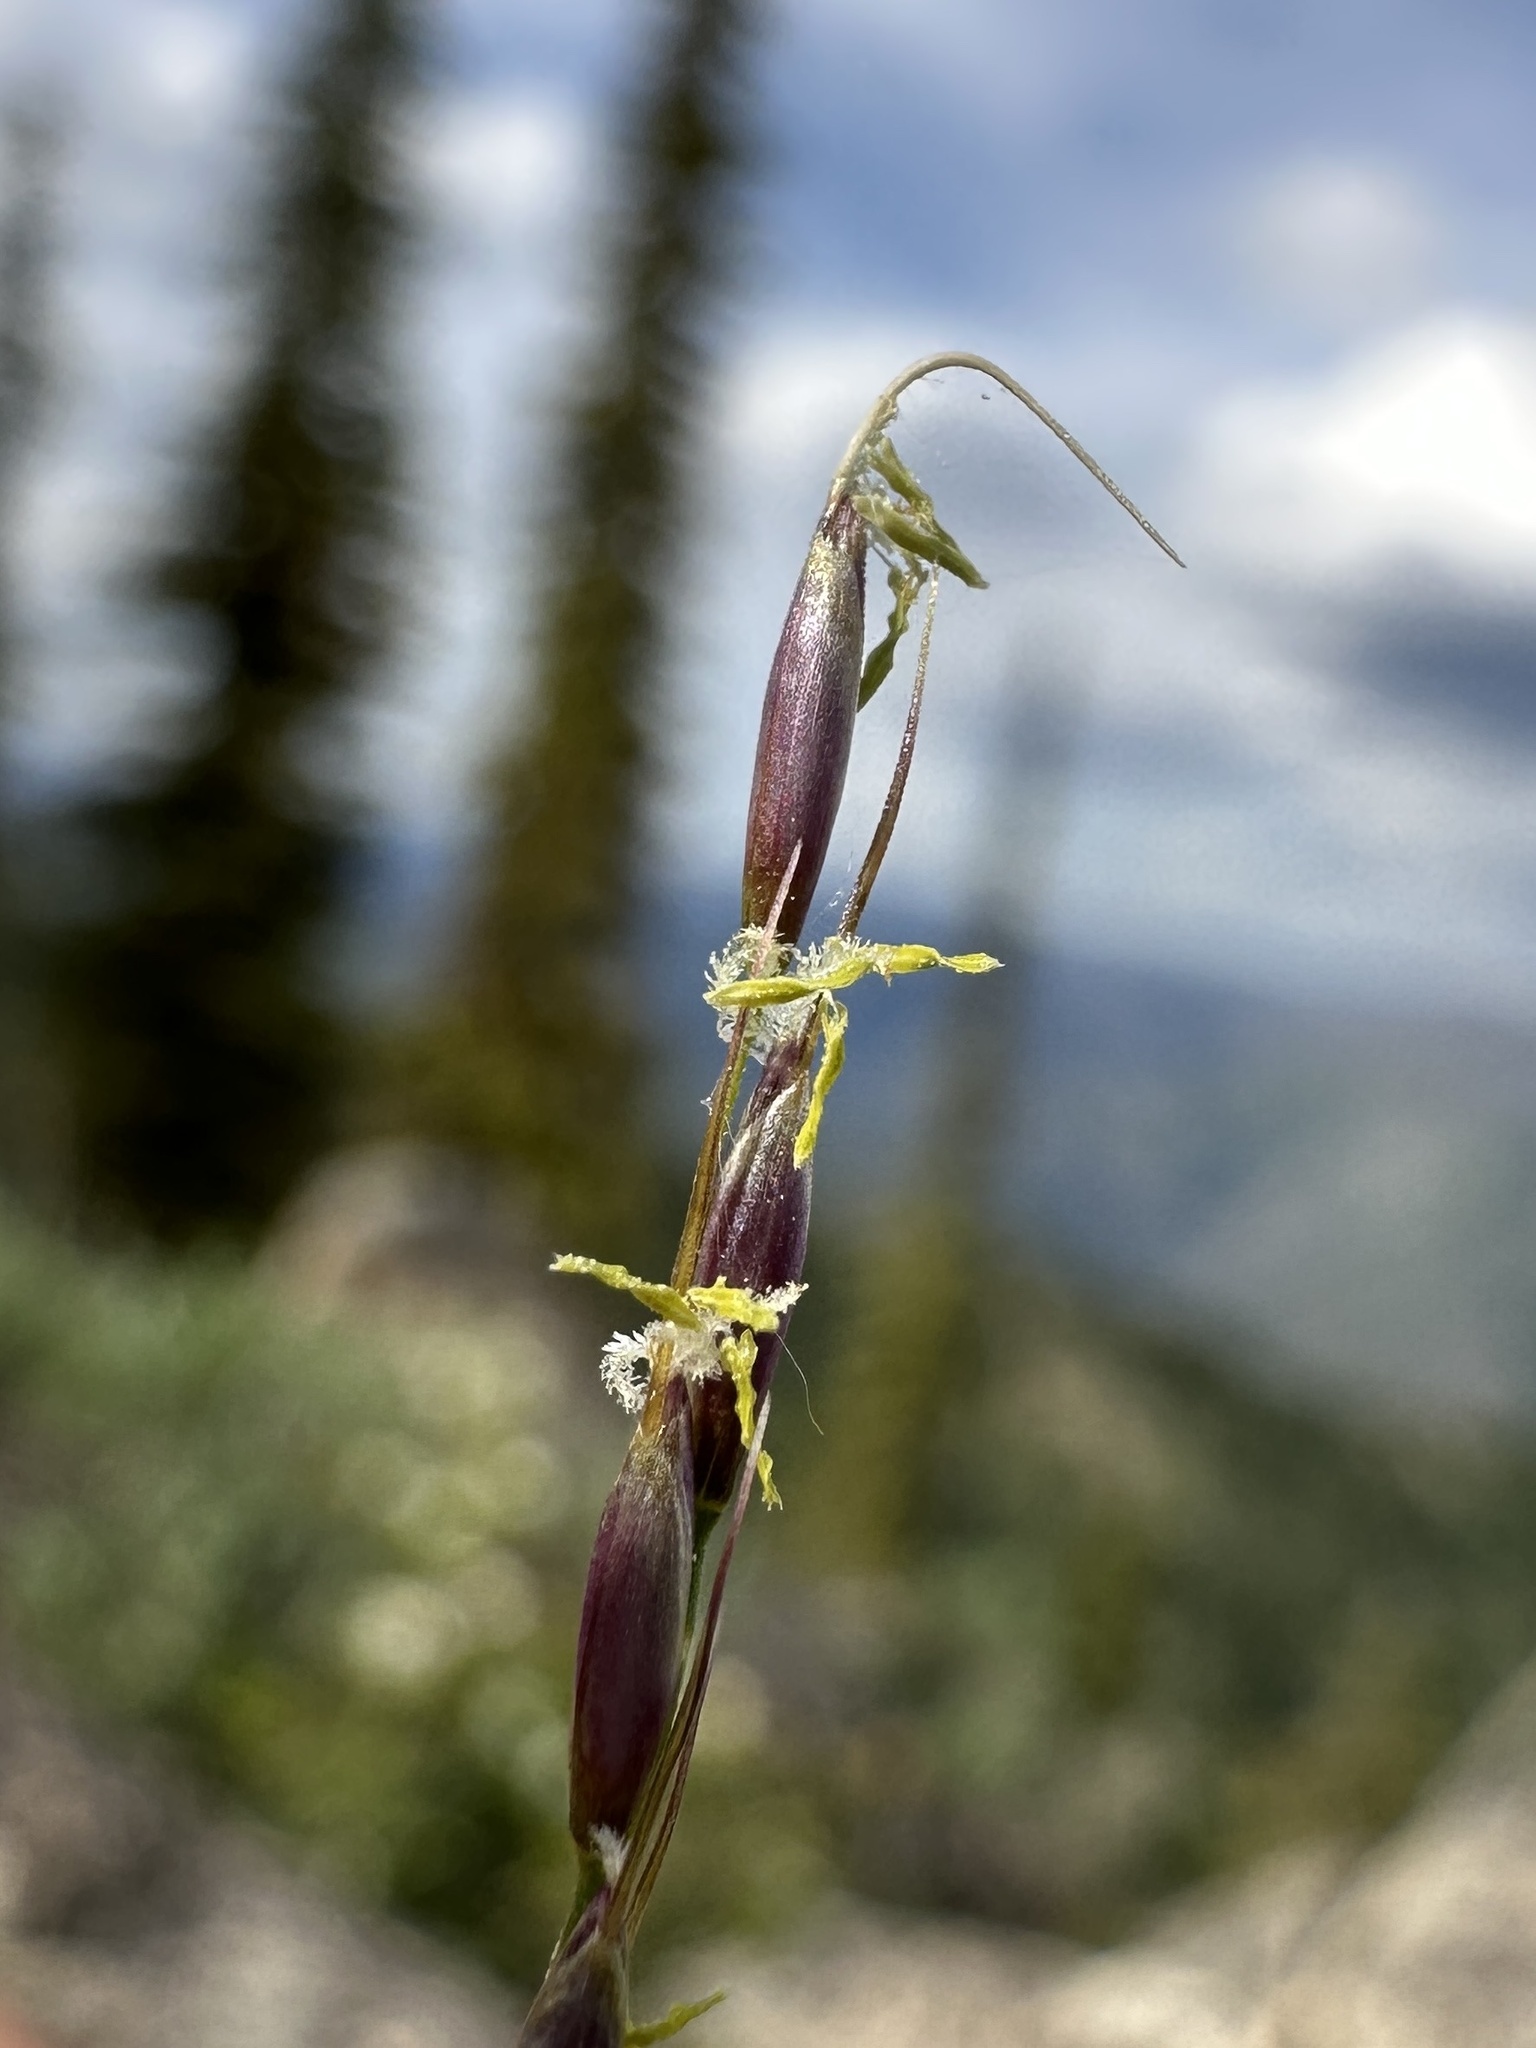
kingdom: Plantae
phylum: Tracheophyta
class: Liliopsida
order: Poales
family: Poaceae
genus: Piptatheropsis
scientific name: Piptatheropsis exigua
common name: Little mountain ricegrass
